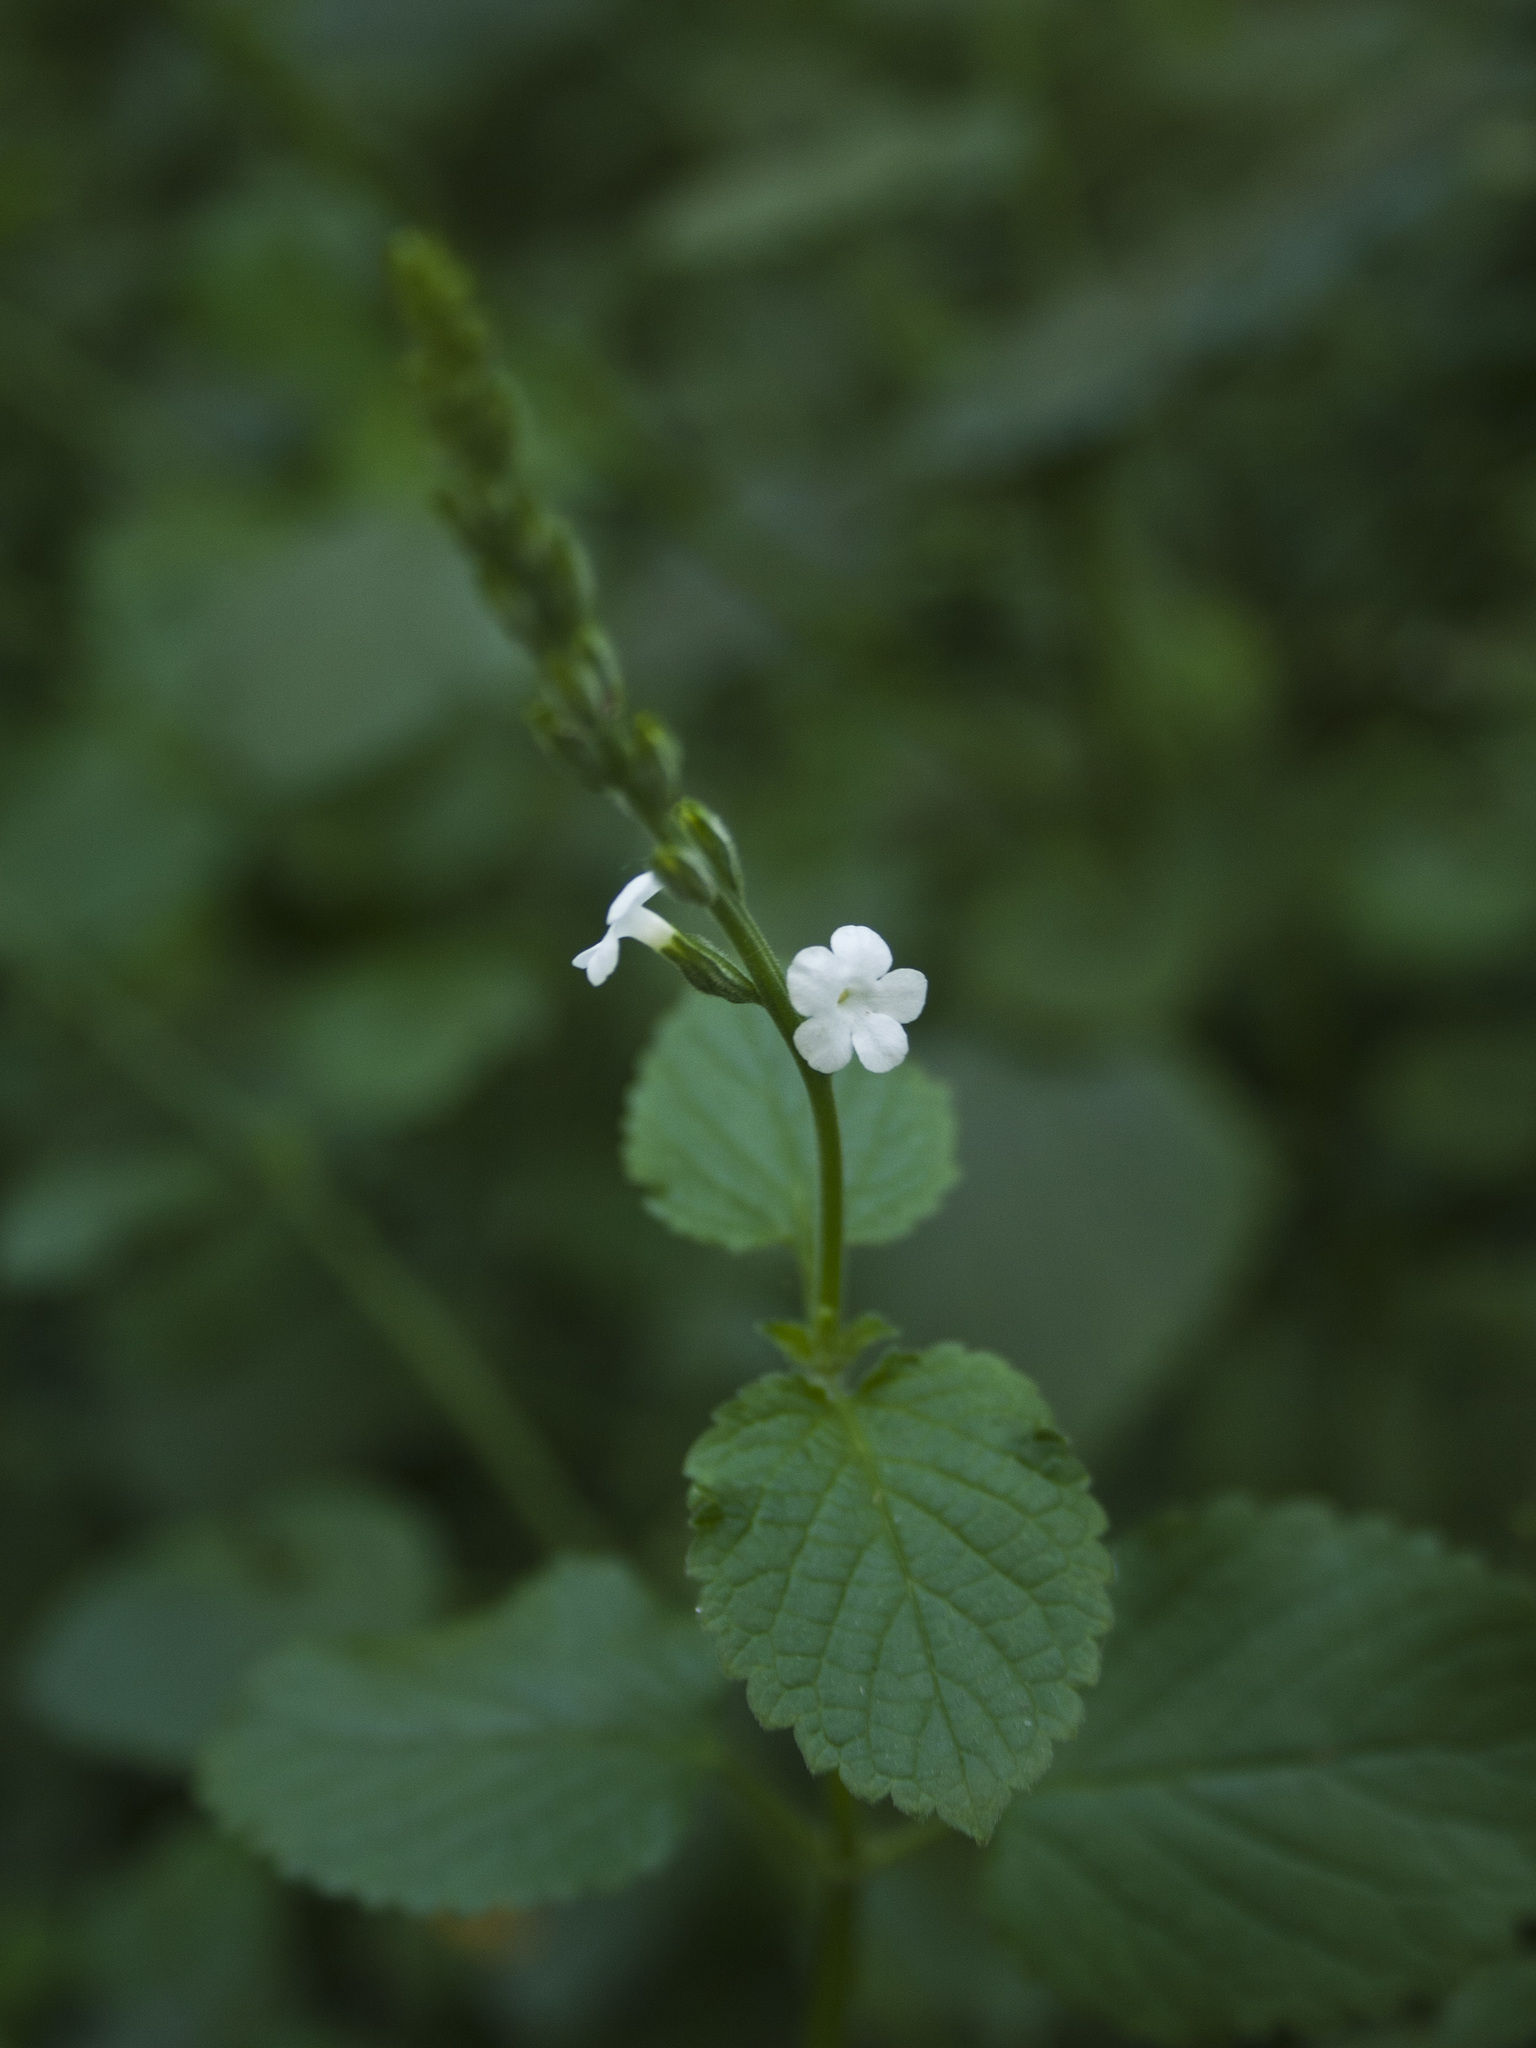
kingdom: Plantae
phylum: Tracheophyta
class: Magnoliopsida
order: Lamiales
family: Verbenaceae
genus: Priva
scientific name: Priva cordifolia
